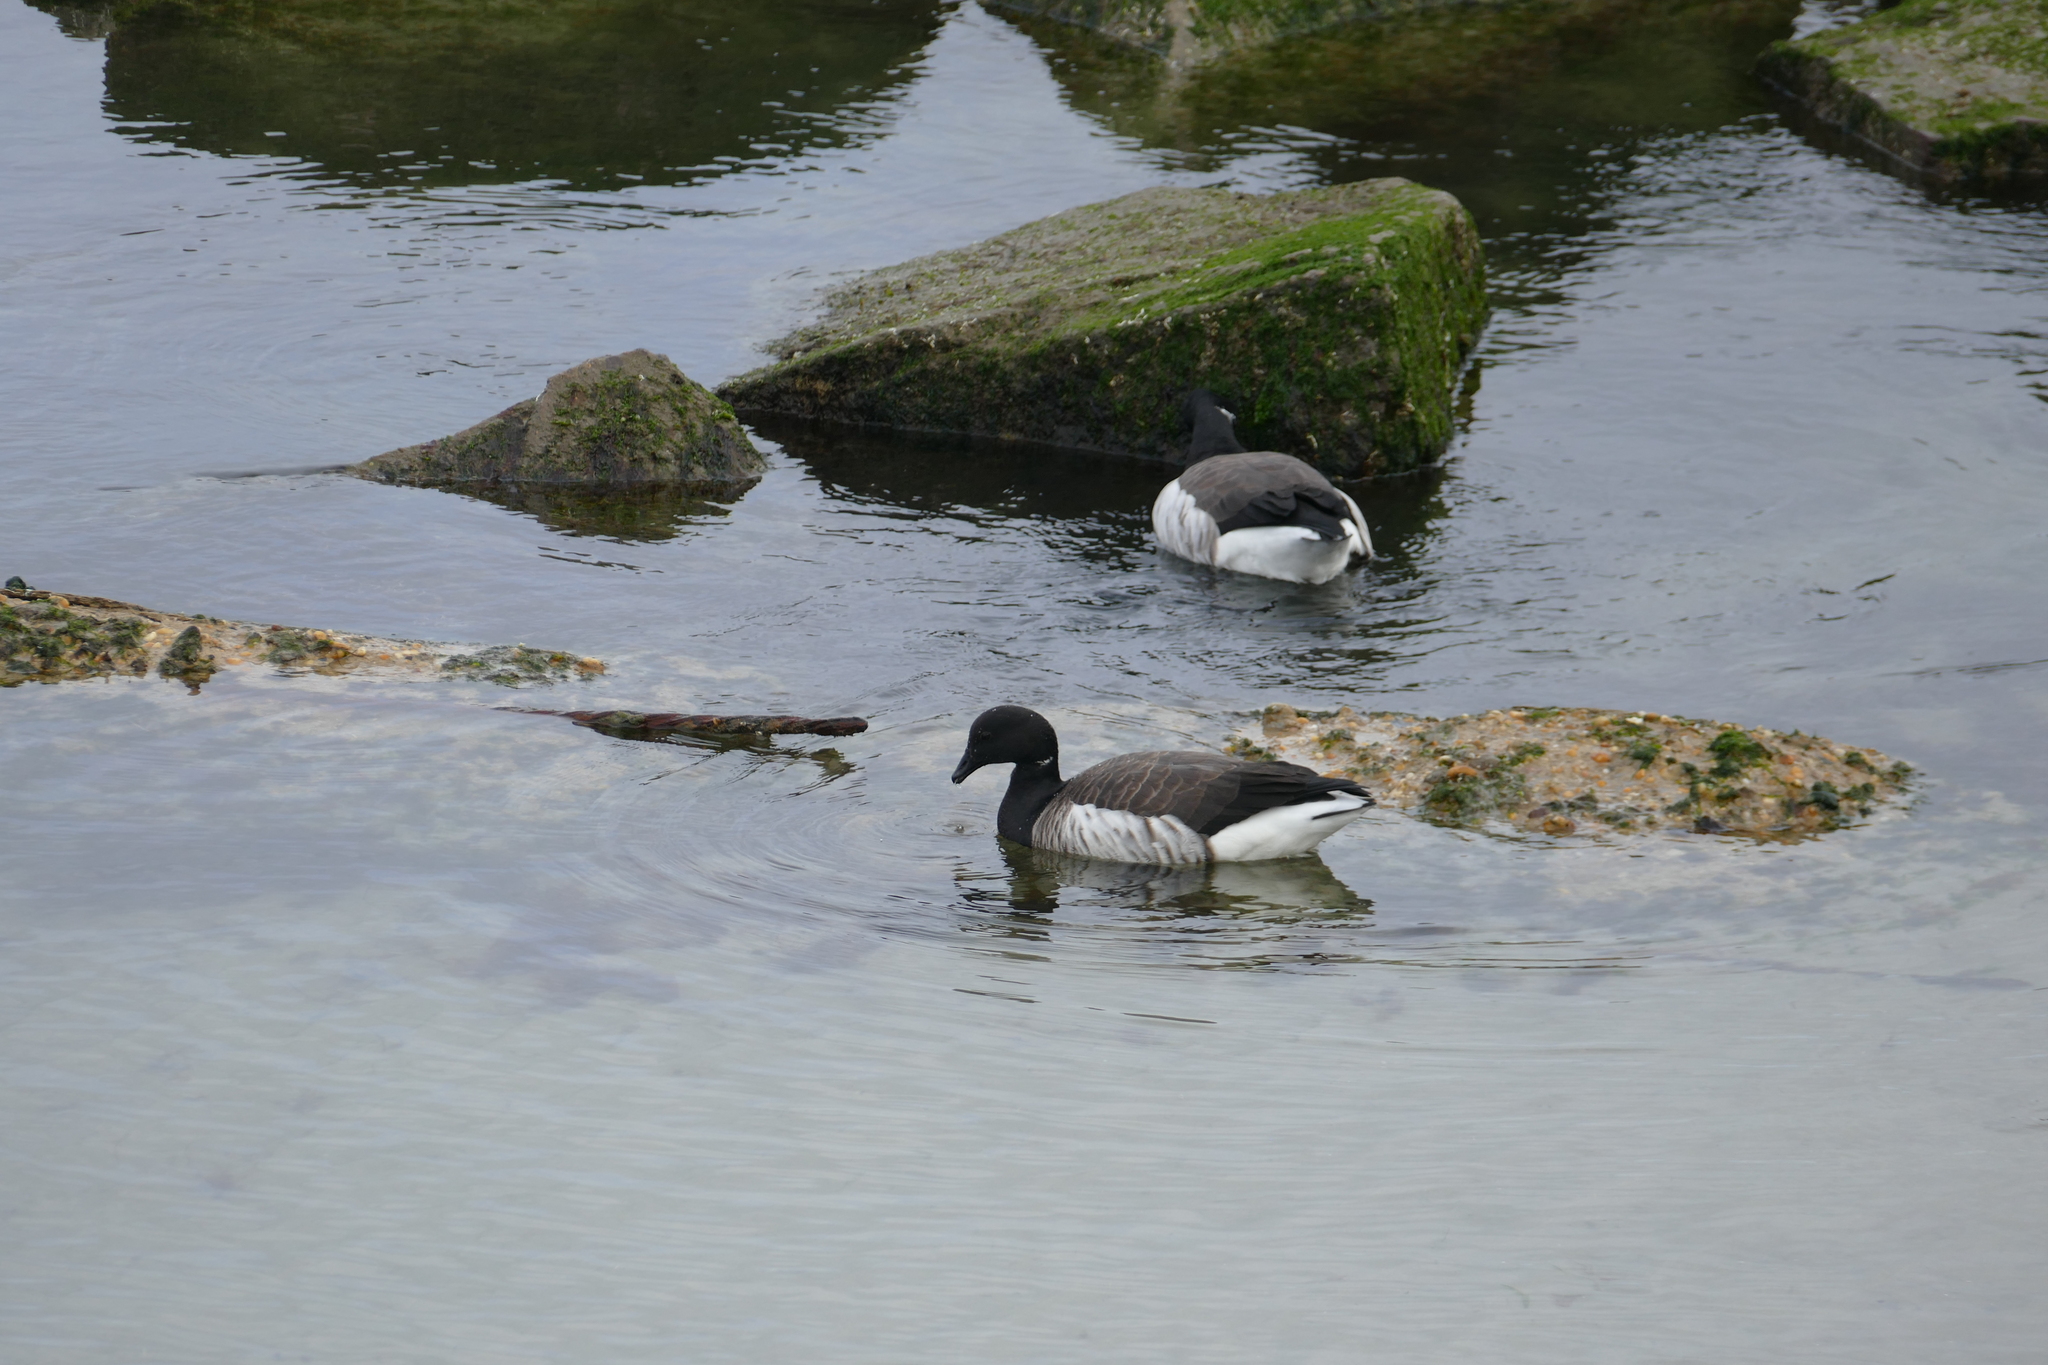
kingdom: Animalia
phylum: Chordata
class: Aves
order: Anseriformes
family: Anatidae
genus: Branta
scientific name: Branta bernicla
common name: Brant goose
